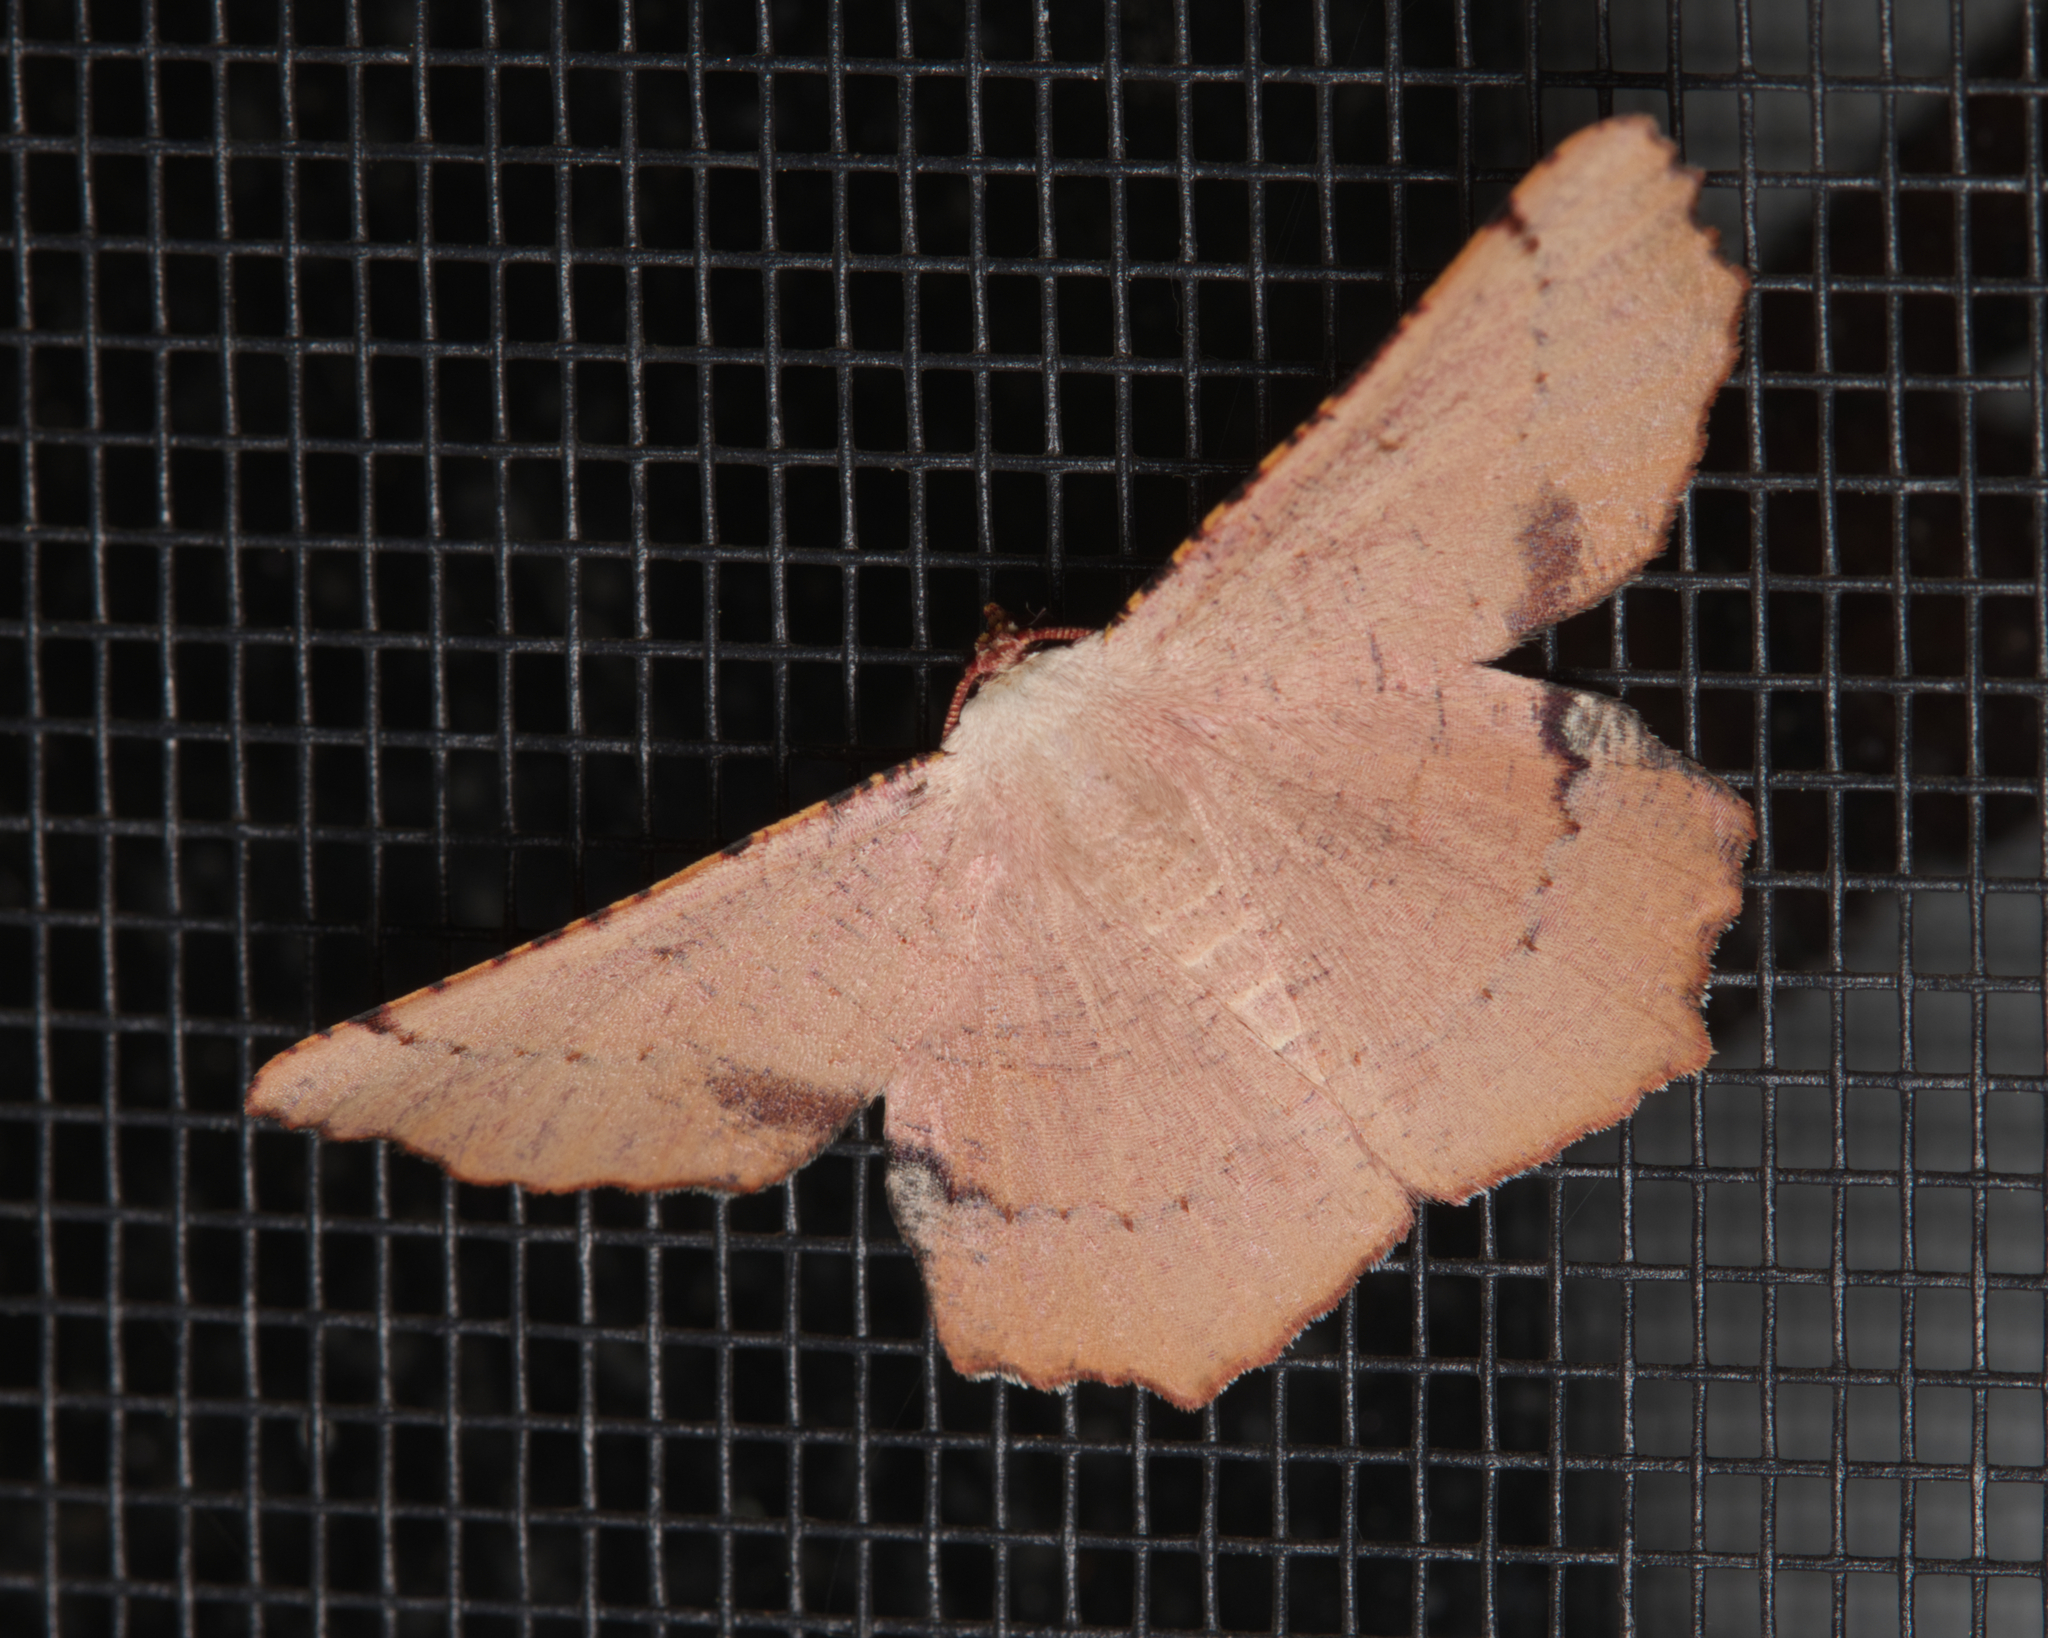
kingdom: Animalia
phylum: Arthropoda
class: Insecta
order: Lepidoptera
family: Geometridae
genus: Cernia
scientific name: Cernia amyclaria
